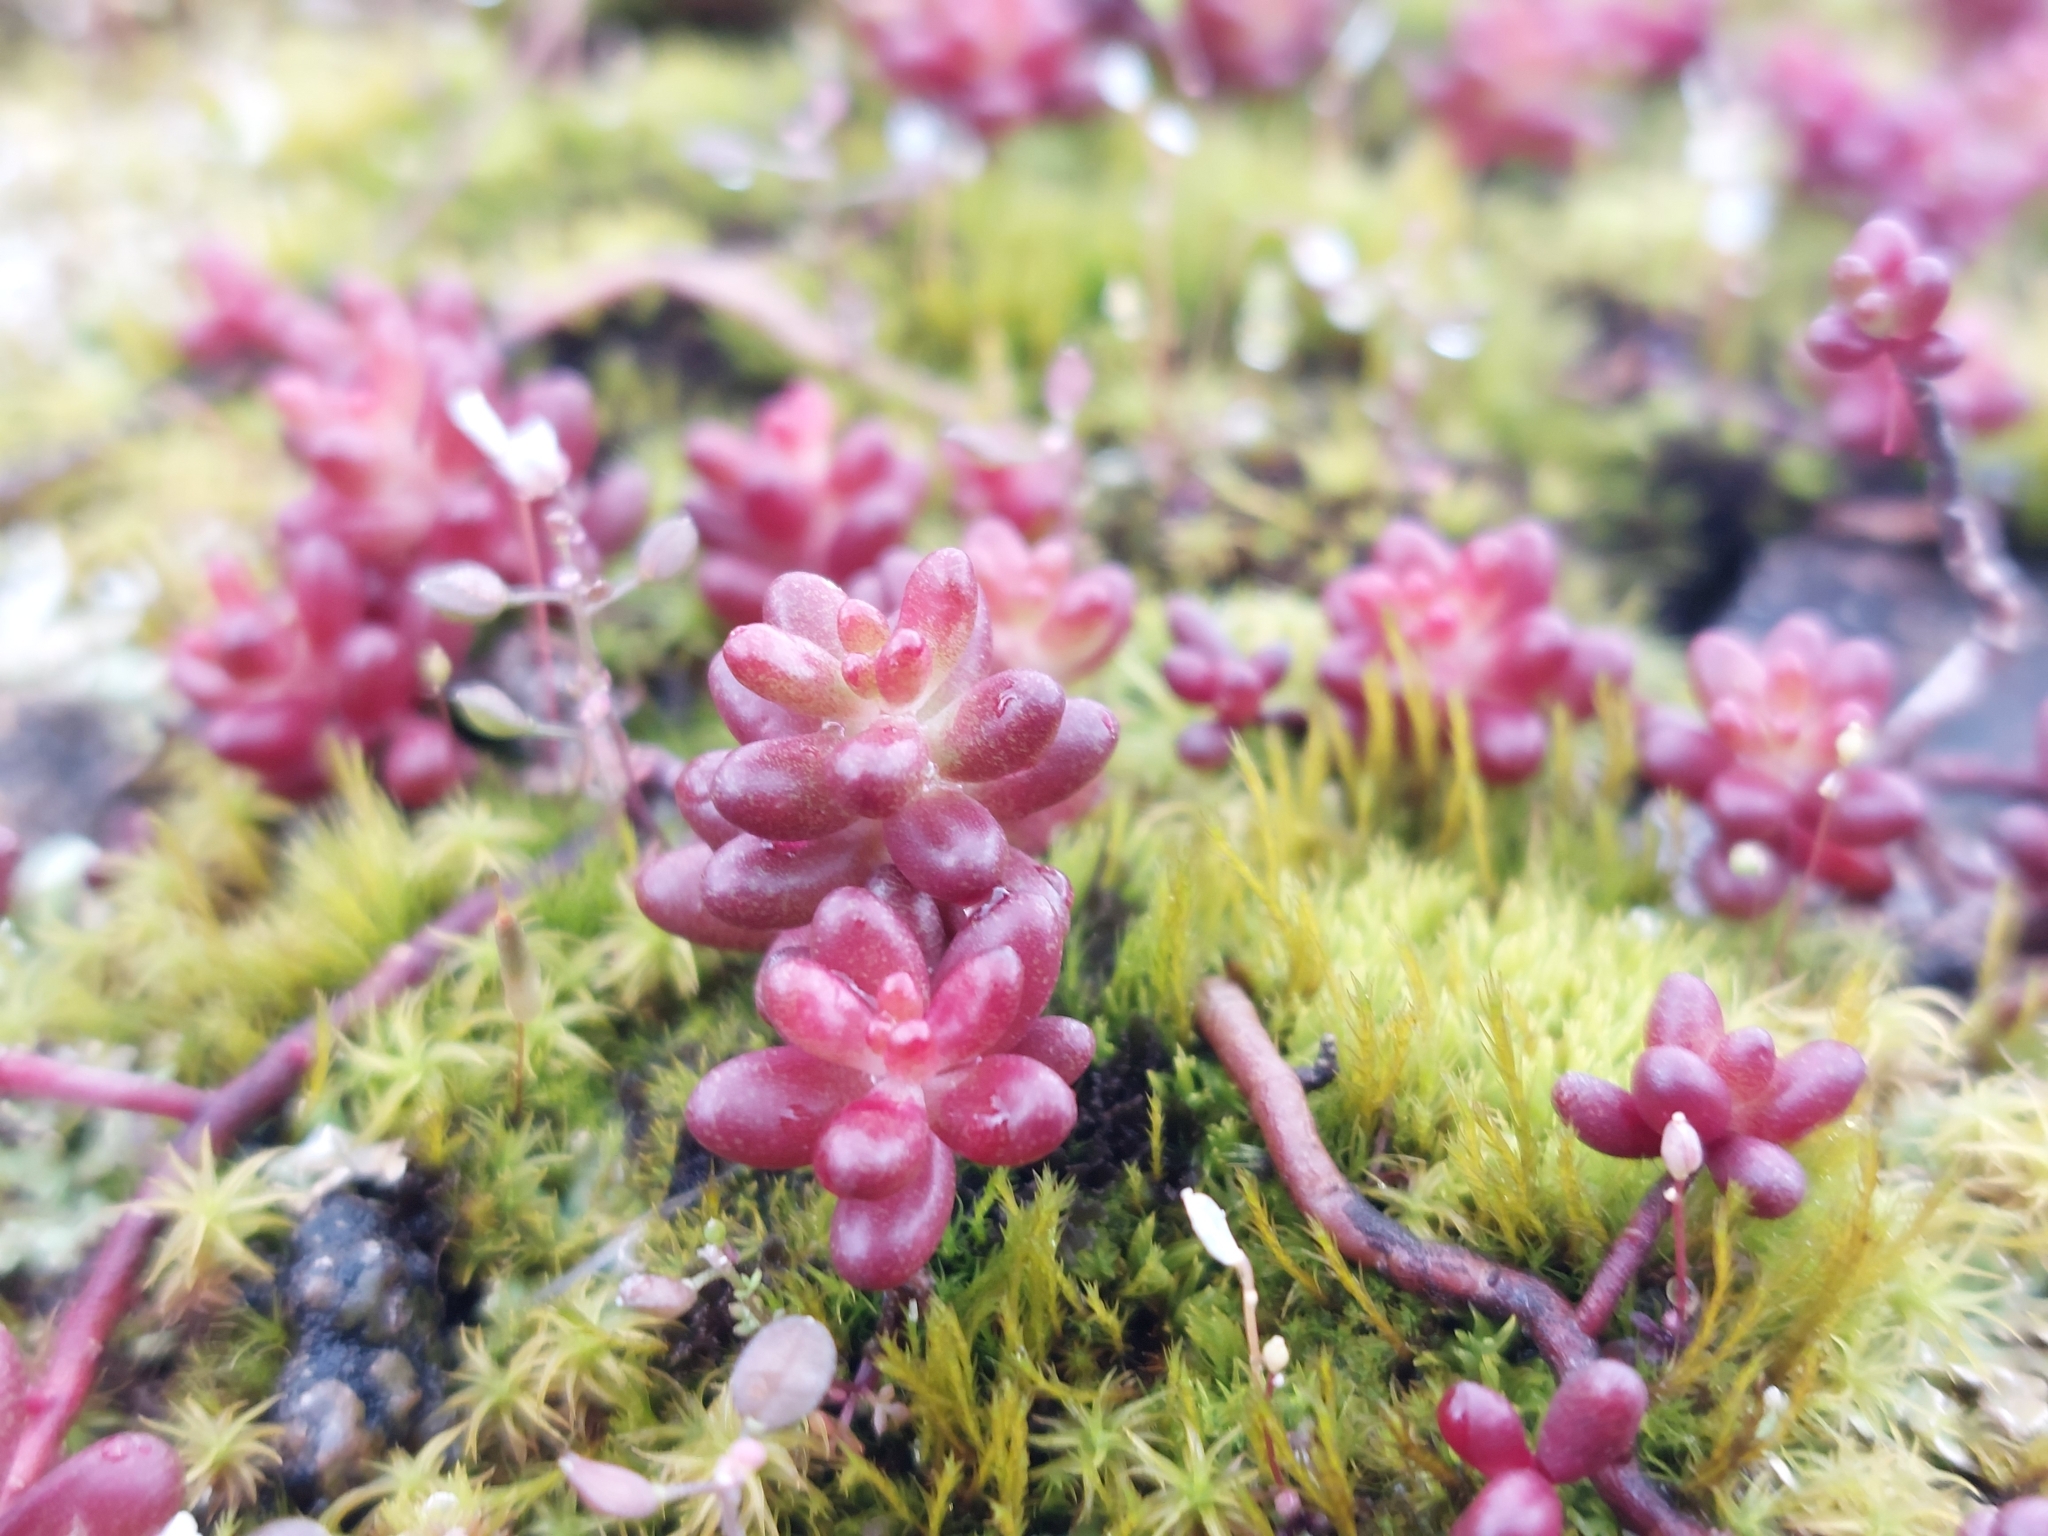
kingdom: Plantae
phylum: Tracheophyta
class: Magnoliopsida
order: Saxifragales
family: Crassulaceae
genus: Sedum
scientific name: Sedum album
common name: White stonecrop
